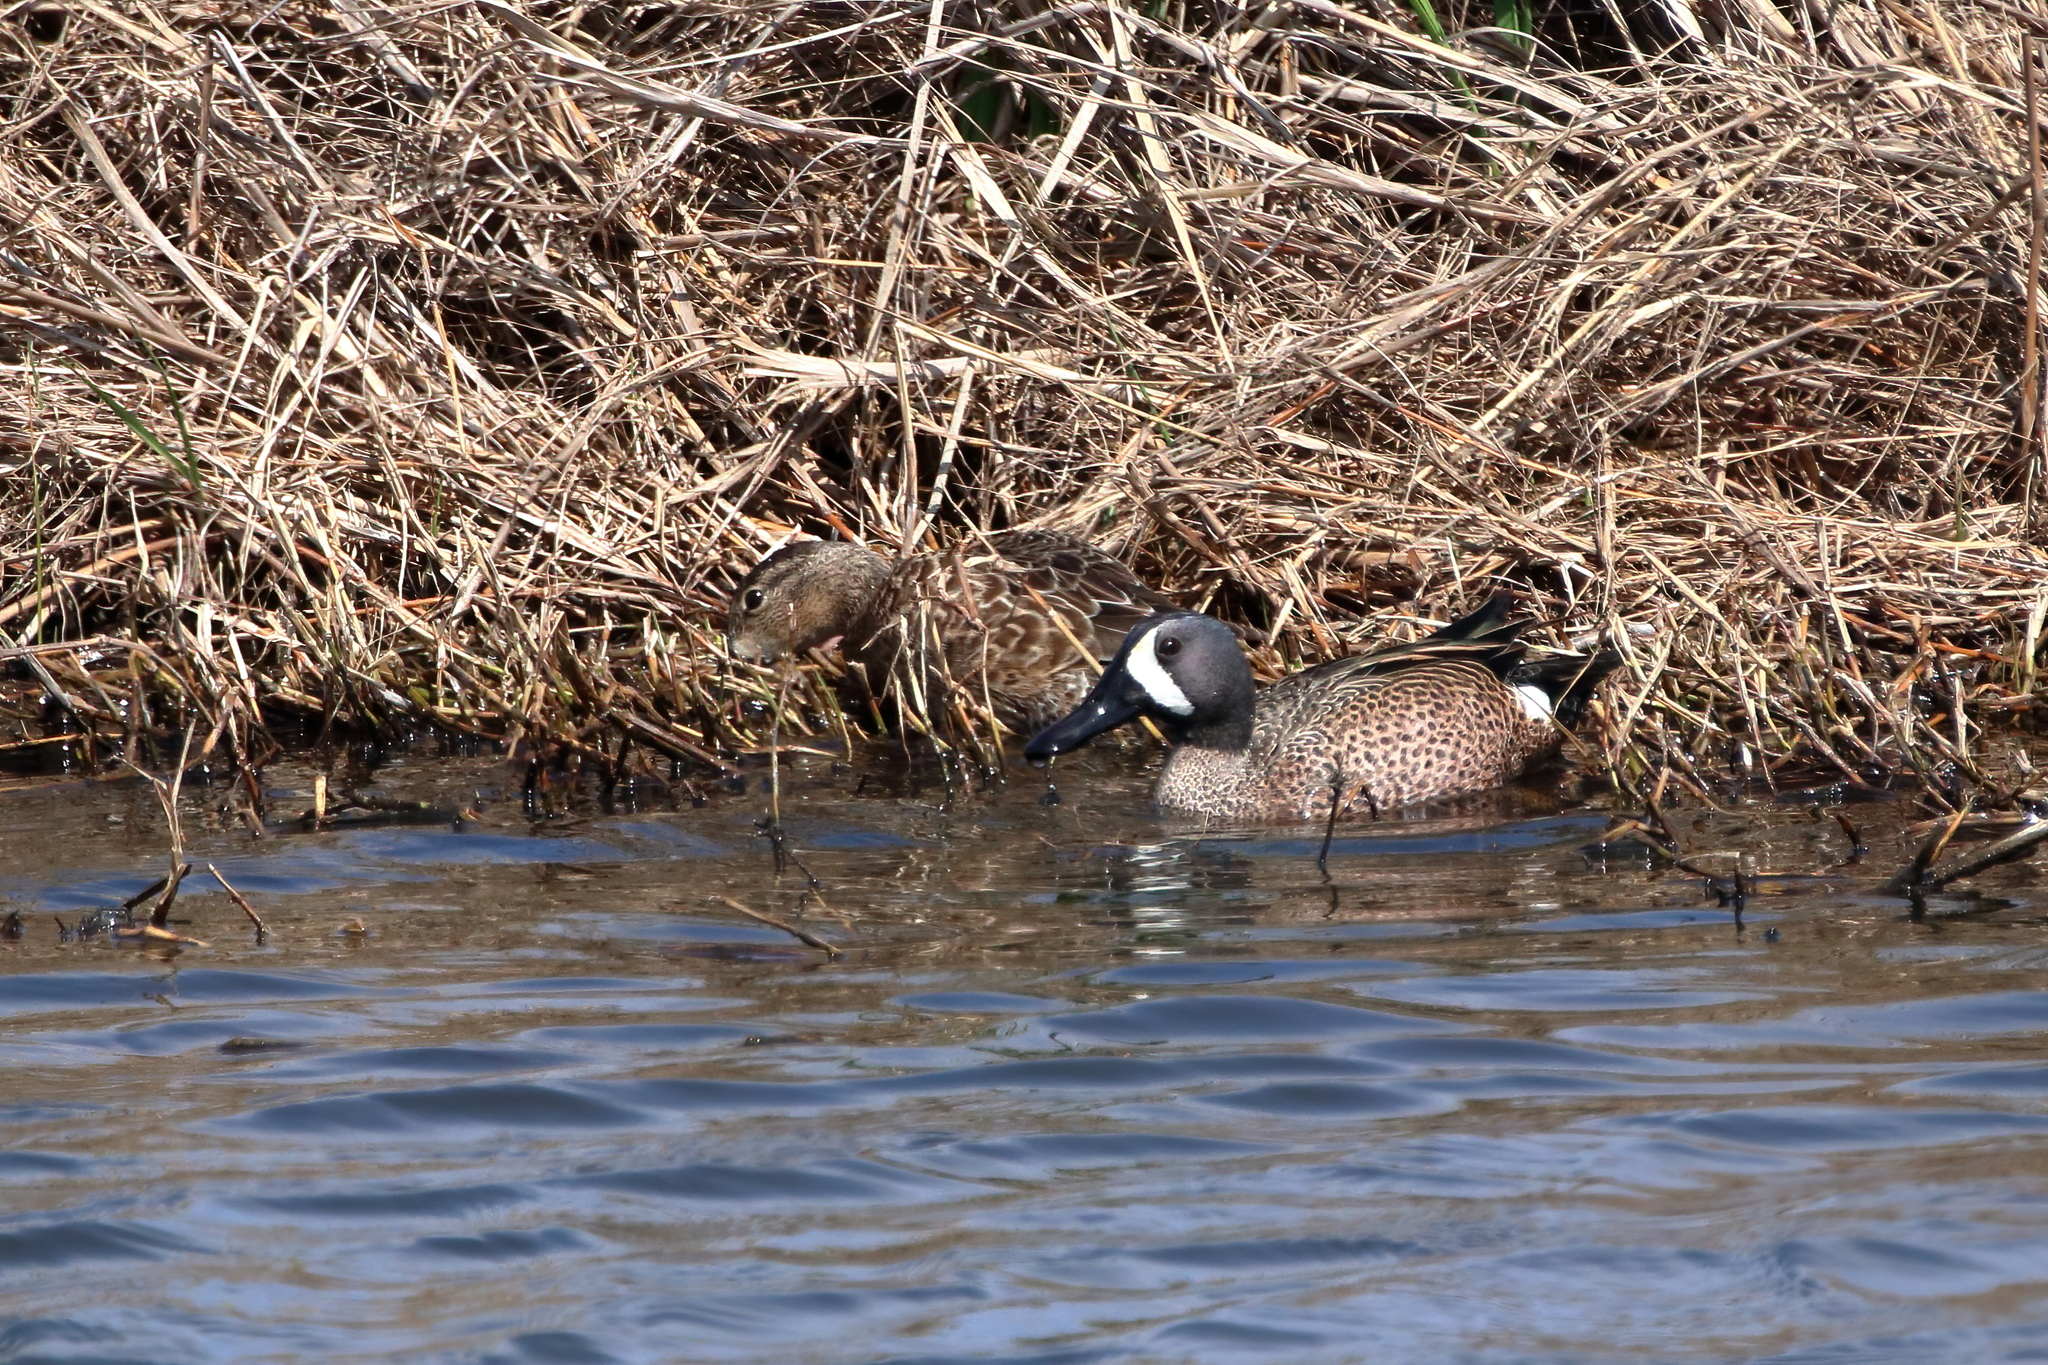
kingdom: Animalia
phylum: Chordata
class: Aves
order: Anseriformes
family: Anatidae
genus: Spatula
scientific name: Spatula discors
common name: Blue-winged teal
